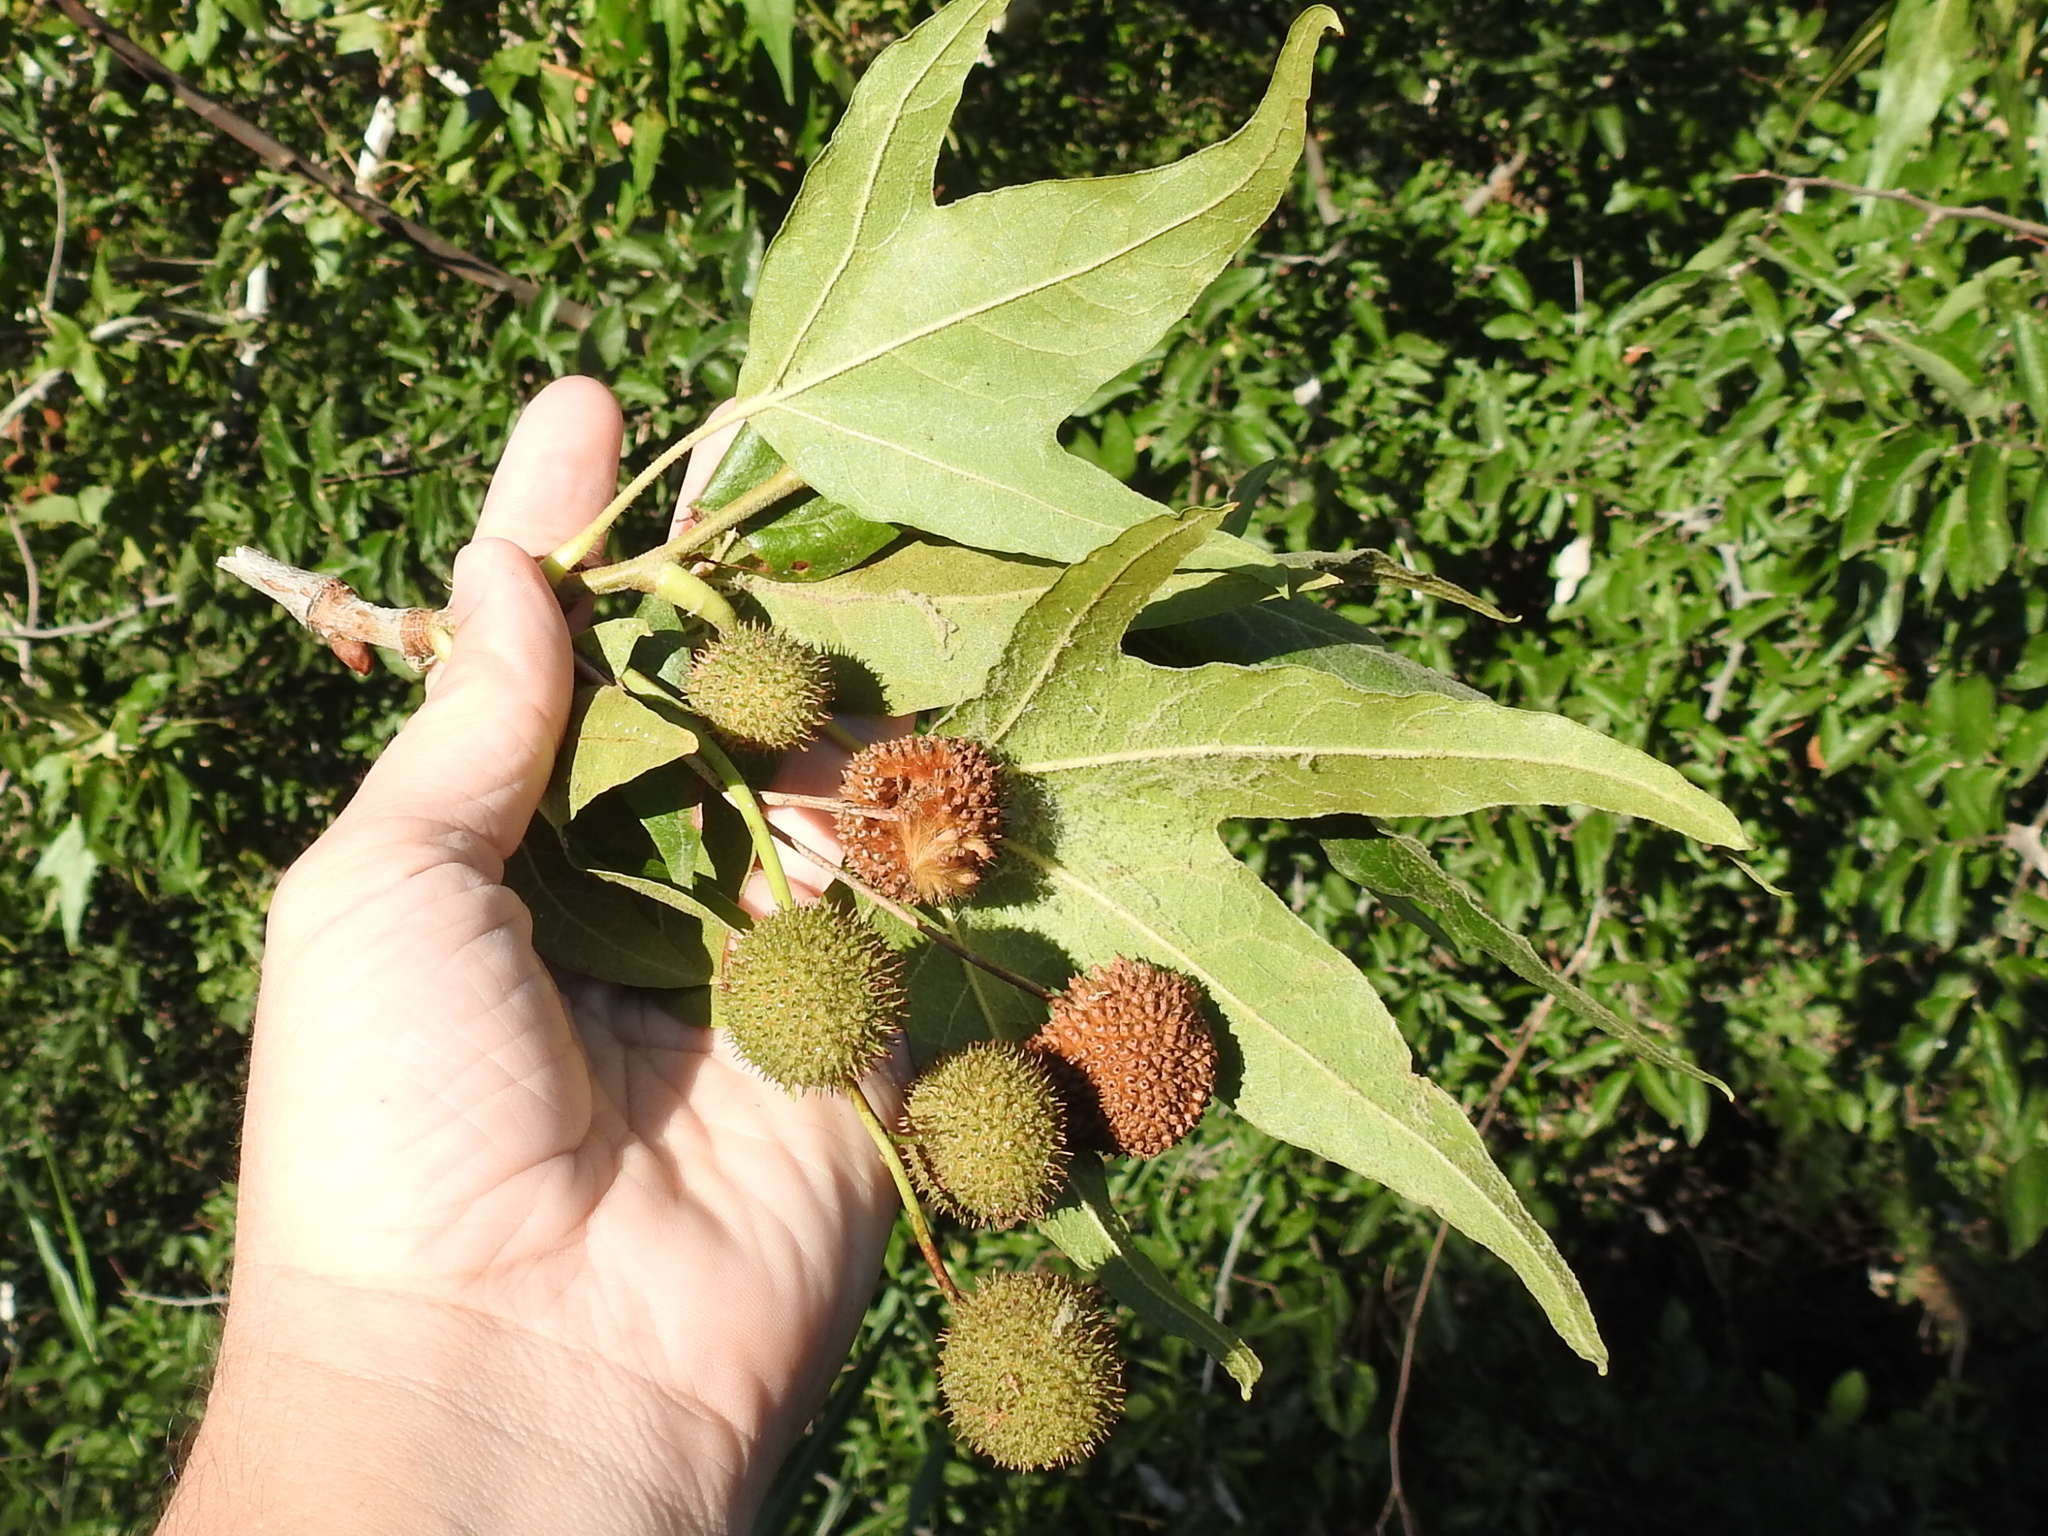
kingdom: Plantae
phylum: Tracheophyta
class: Magnoliopsida
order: Proteales
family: Platanaceae
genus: Platanus
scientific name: Platanus wrightii
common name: Arizona sycamore
